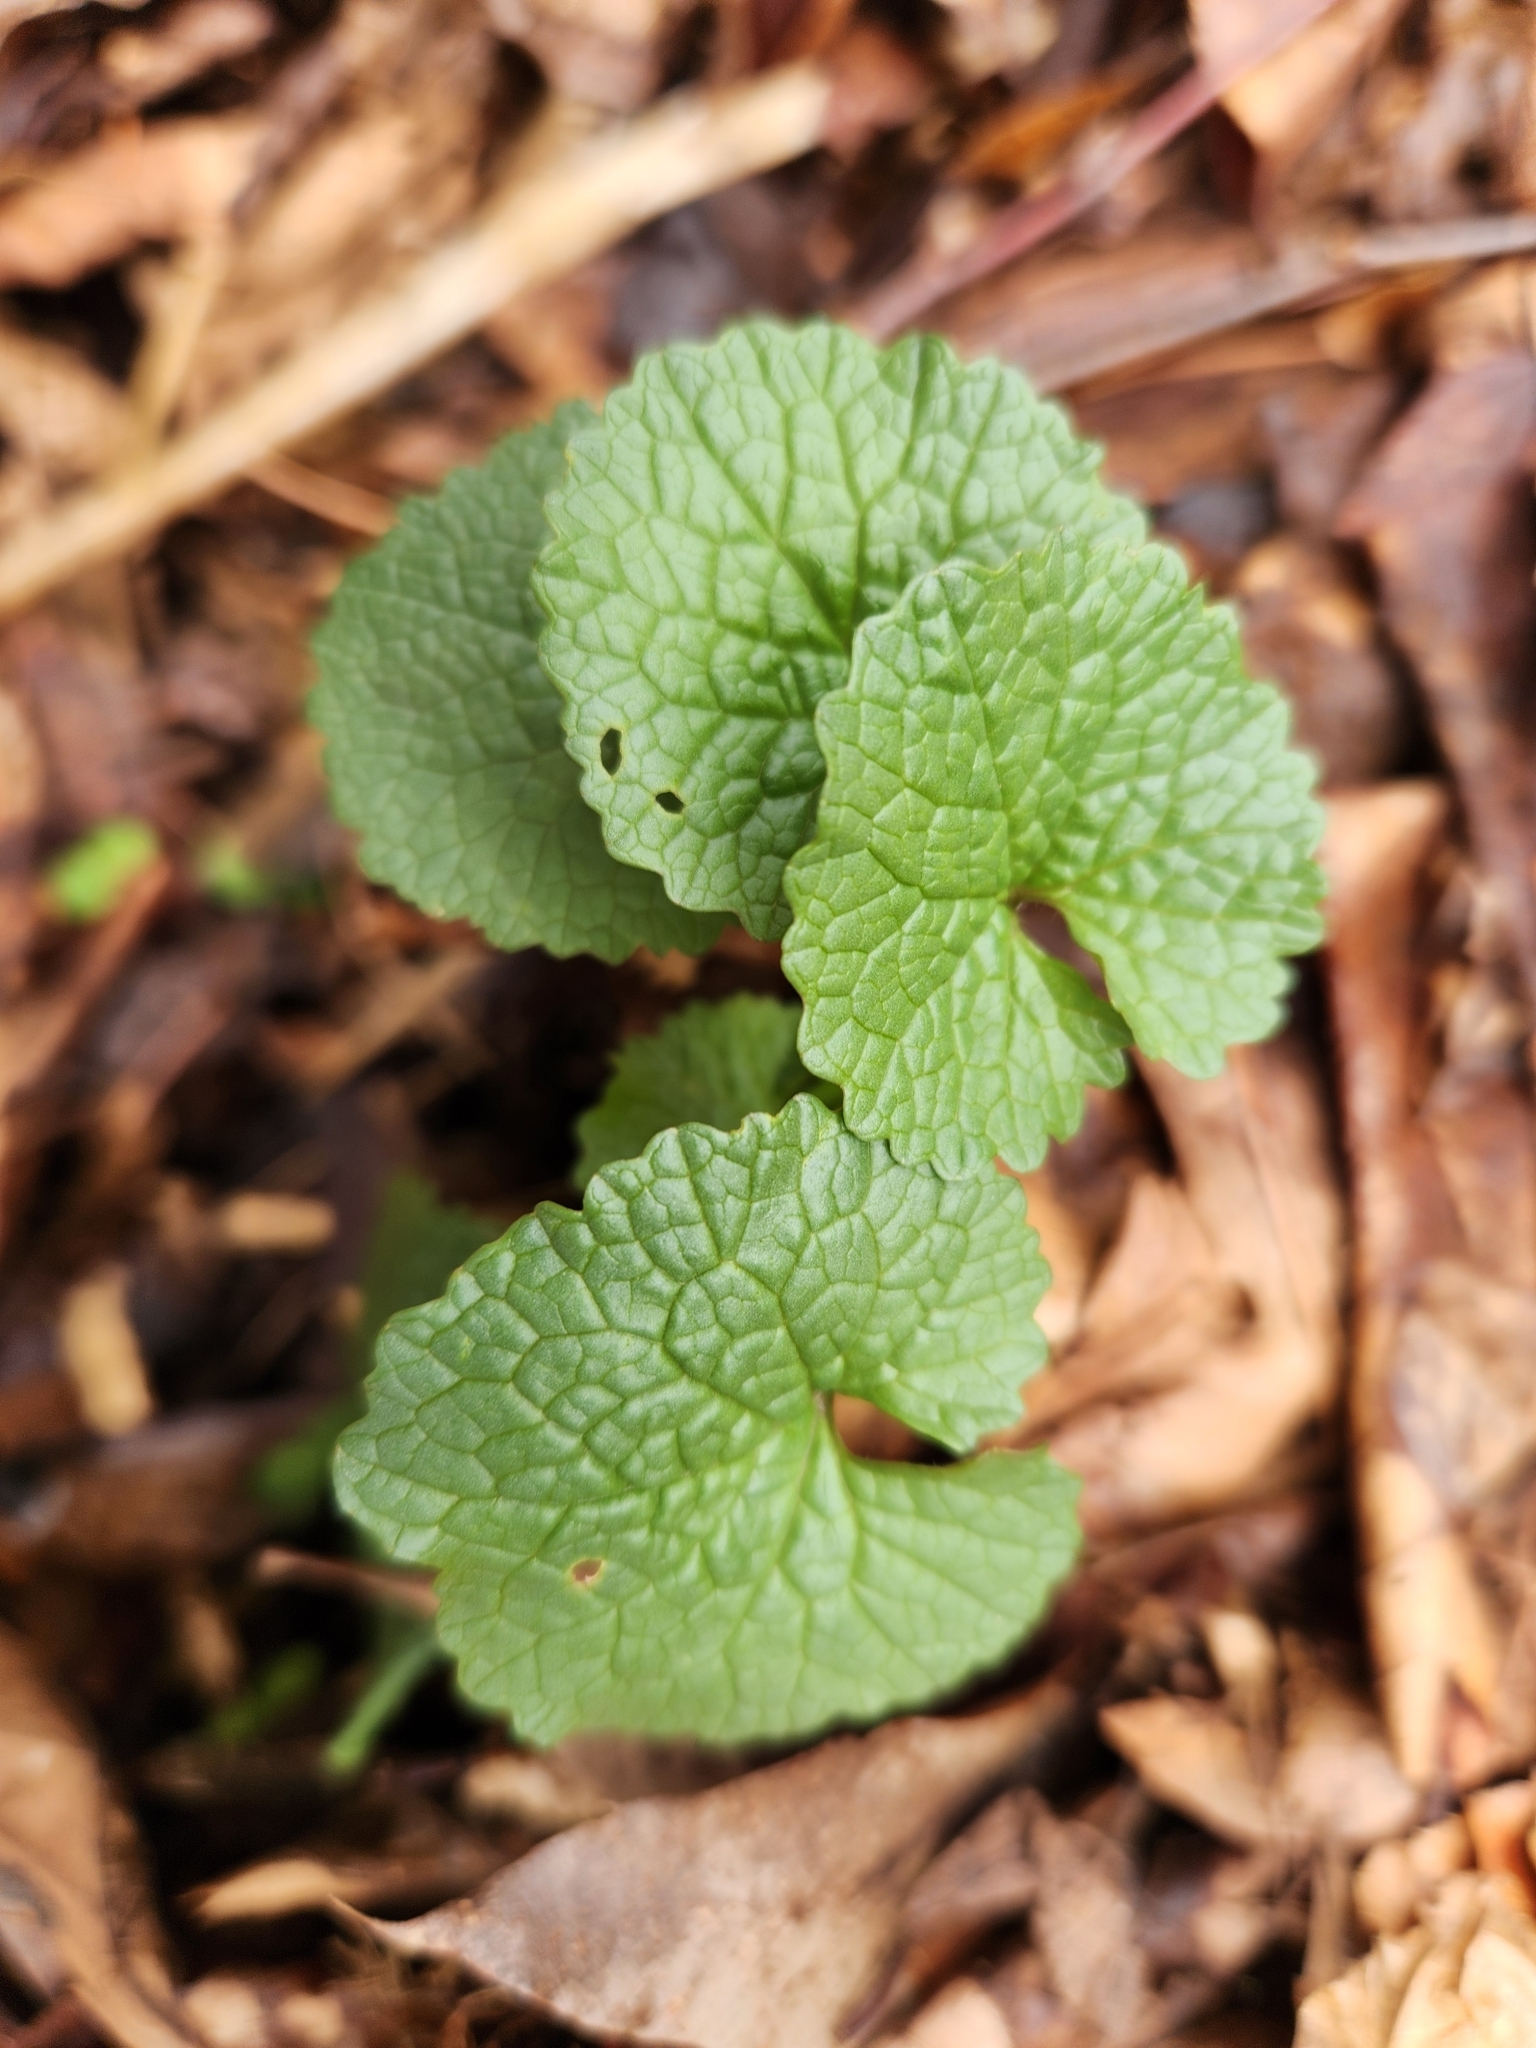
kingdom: Plantae
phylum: Tracheophyta
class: Magnoliopsida
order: Brassicales
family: Brassicaceae
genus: Alliaria
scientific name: Alliaria petiolata
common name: Garlic mustard
